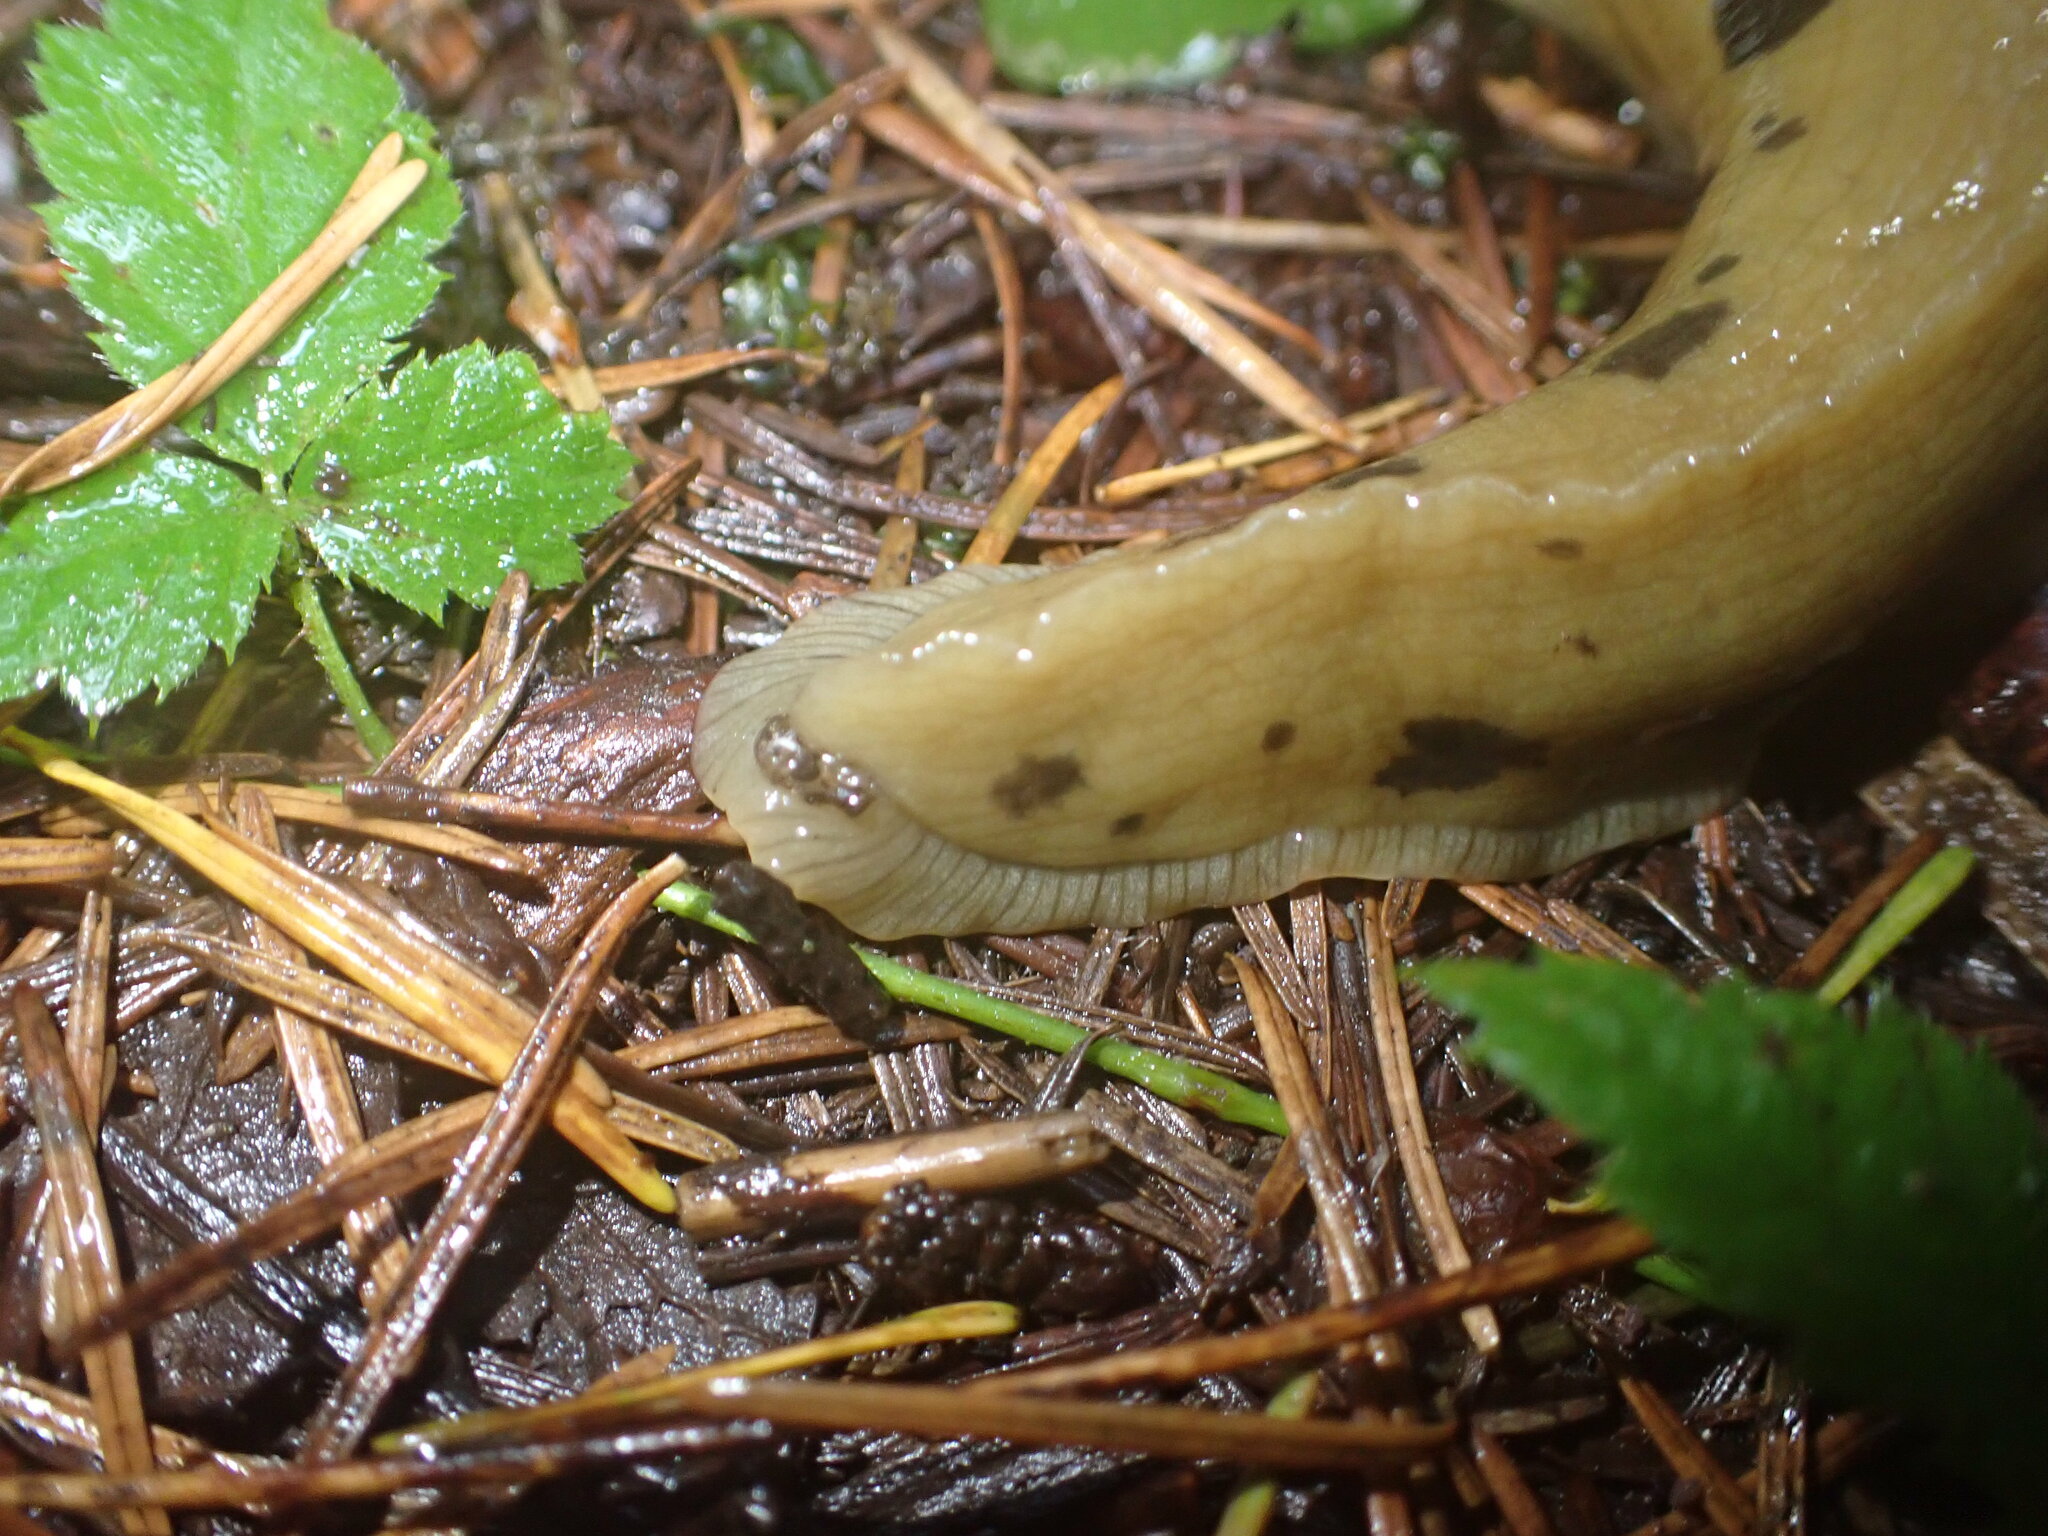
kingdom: Animalia
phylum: Mollusca
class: Gastropoda
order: Stylommatophora
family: Ariolimacidae
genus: Ariolimax
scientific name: Ariolimax columbianus
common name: Pacific banana slug
